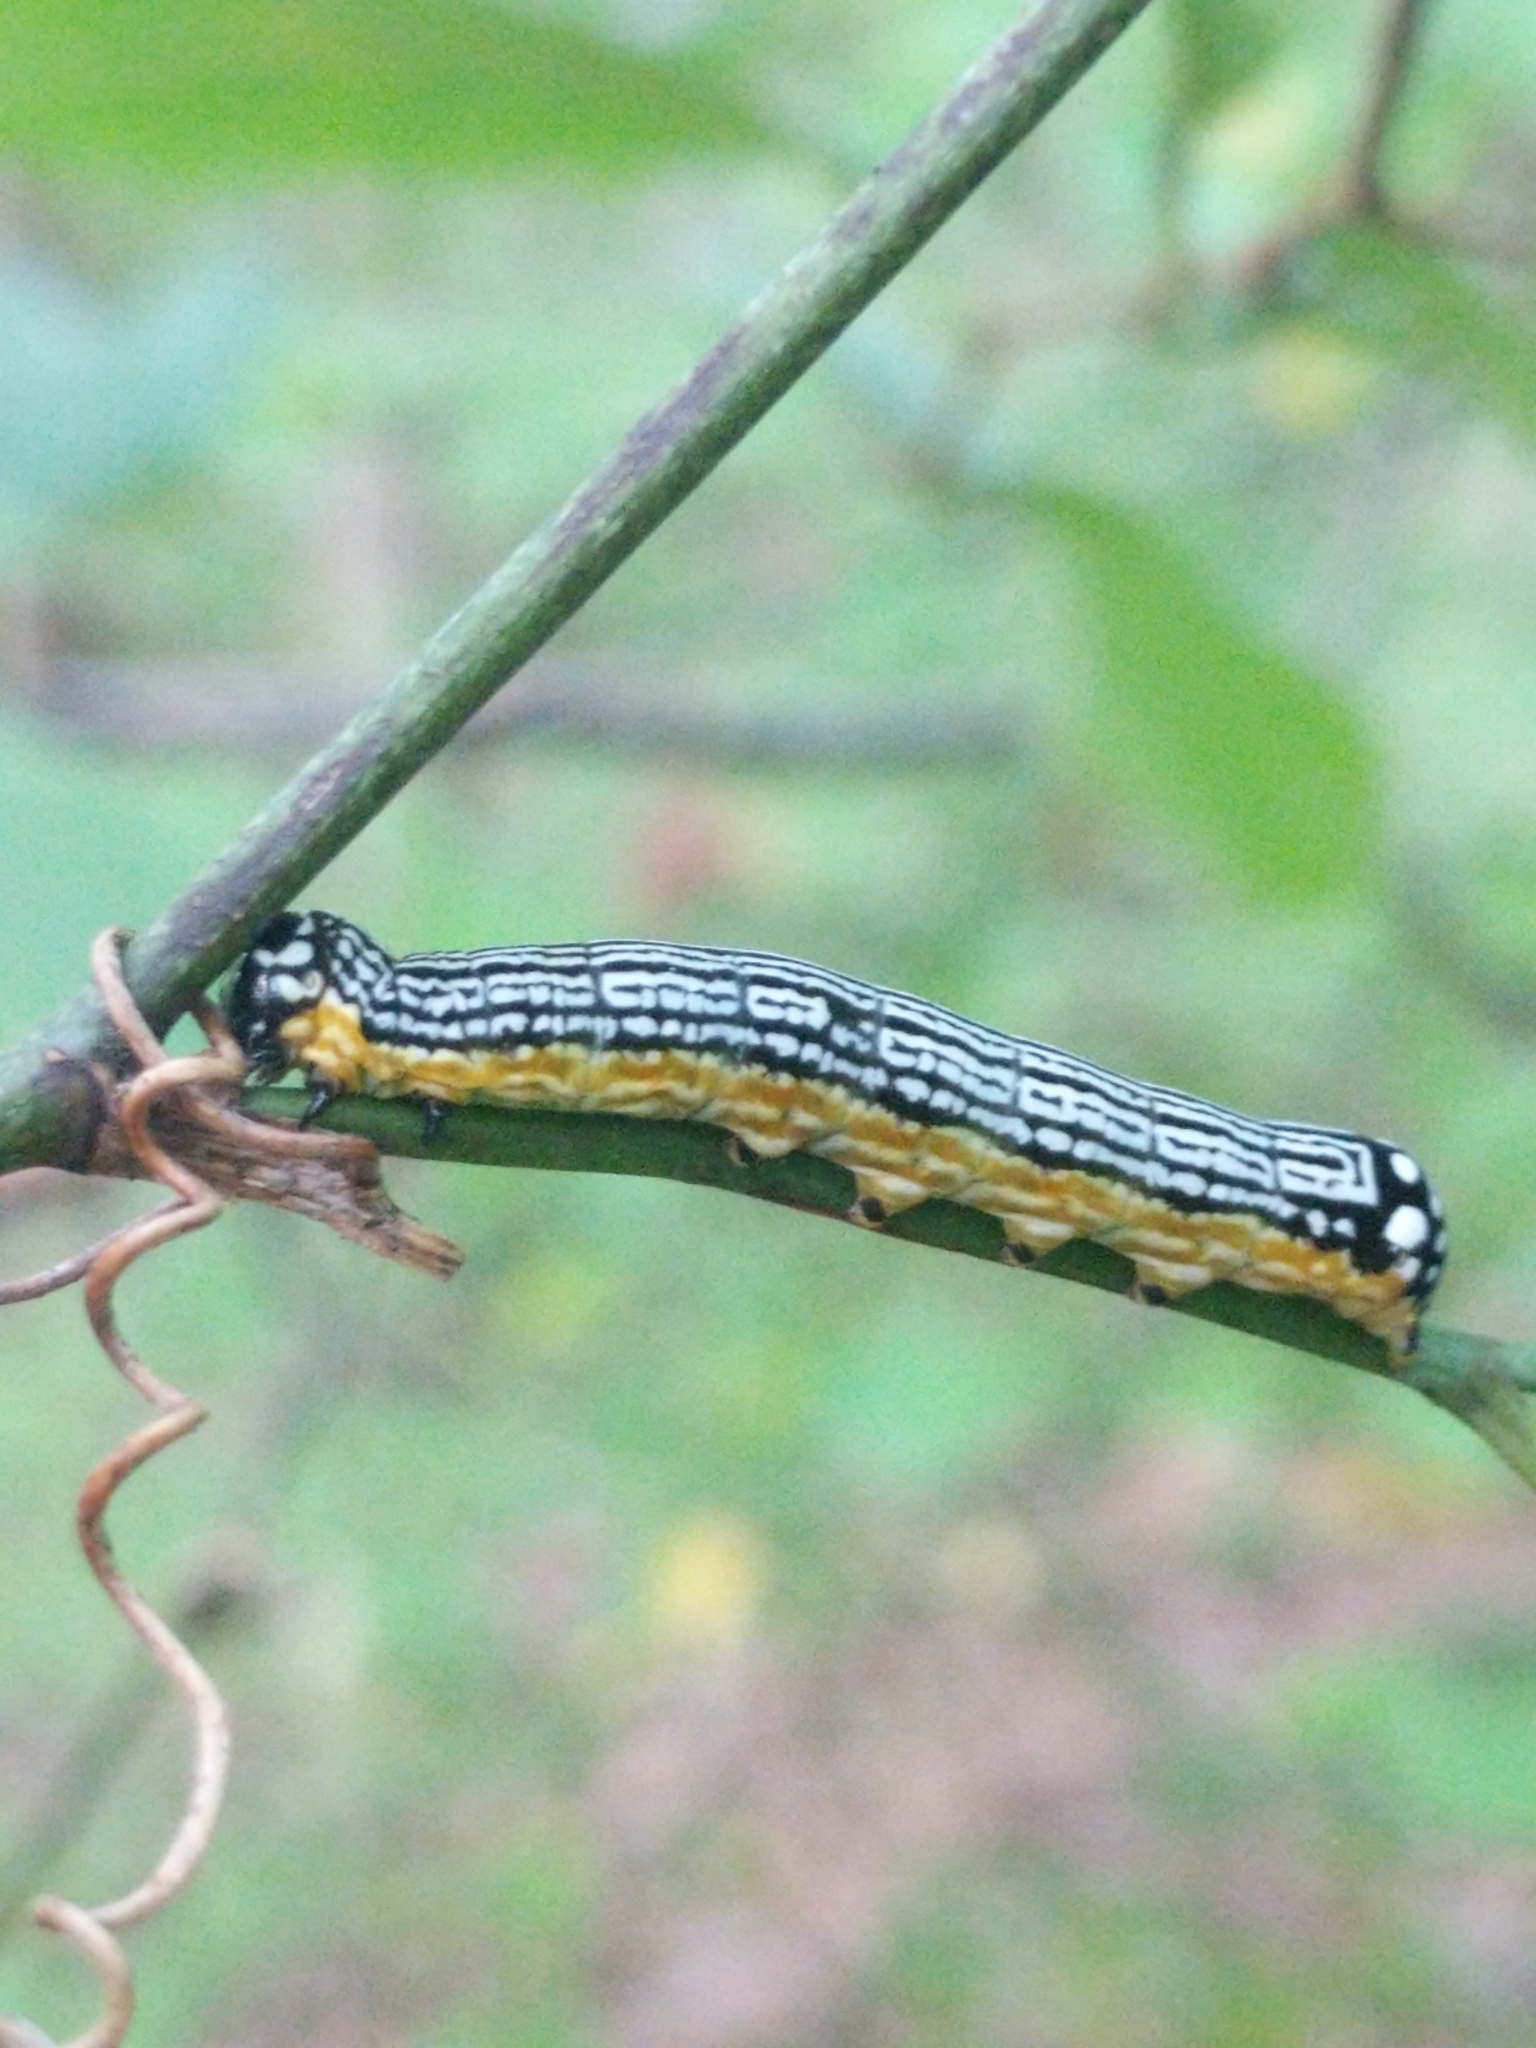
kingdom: Animalia
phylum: Arthropoda
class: Insecta
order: Lepidoptera
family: Noctuidae
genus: Phosphila
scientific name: Phosphila turbulenta
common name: Turbulent phosphila moth
